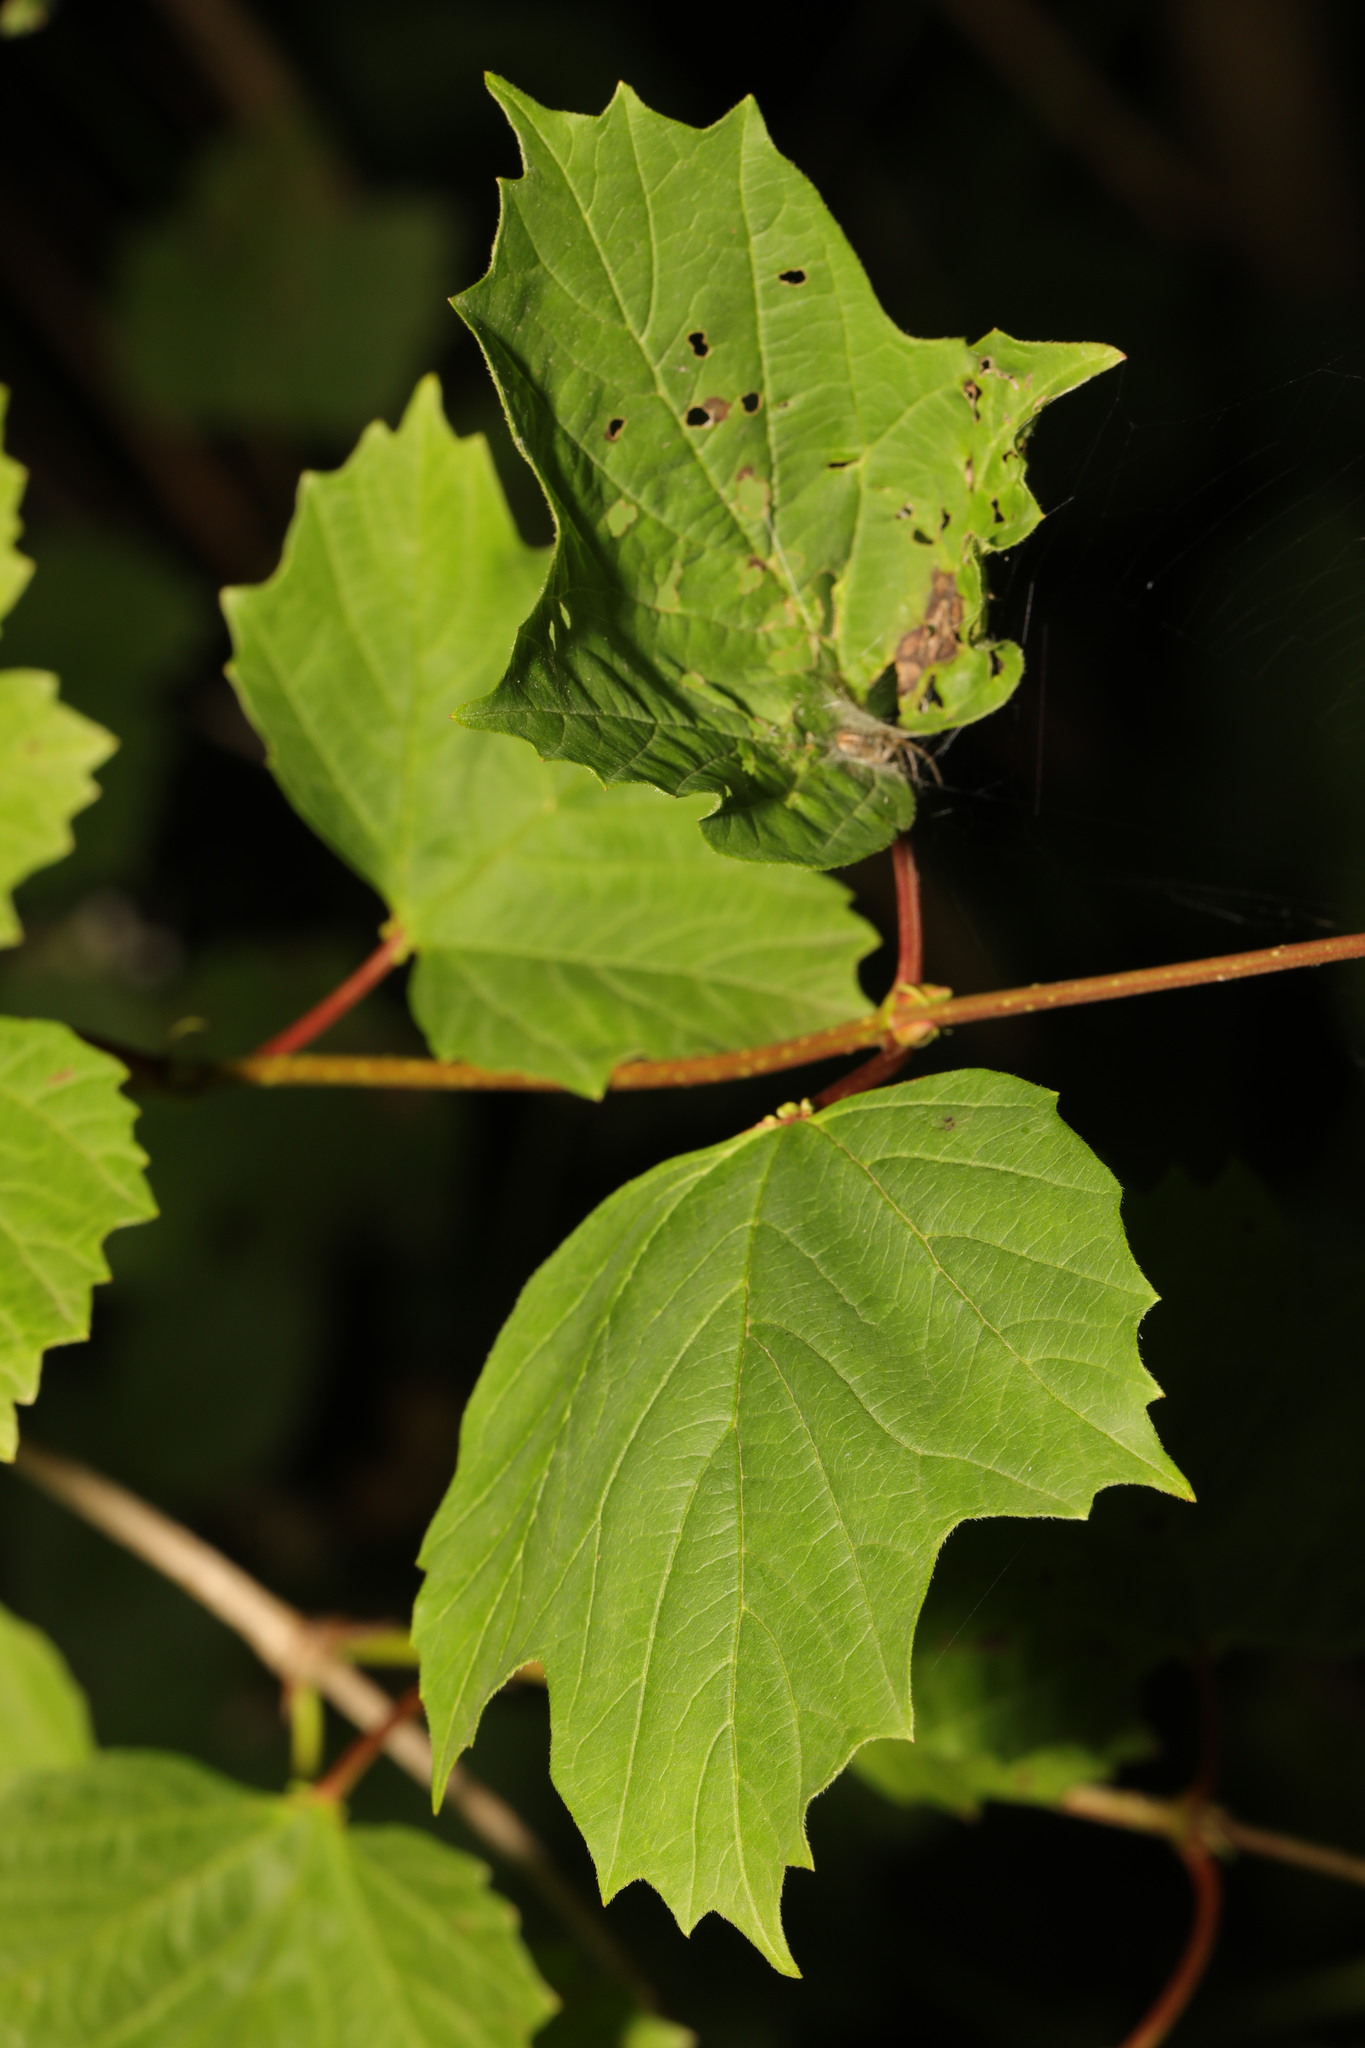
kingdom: Plantae
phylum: Tracheophyta
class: Magnoliopsida
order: Dipsacales
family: Viburnaceae
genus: Viburnum
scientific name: Viburnum opulus
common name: Guelder-rose
